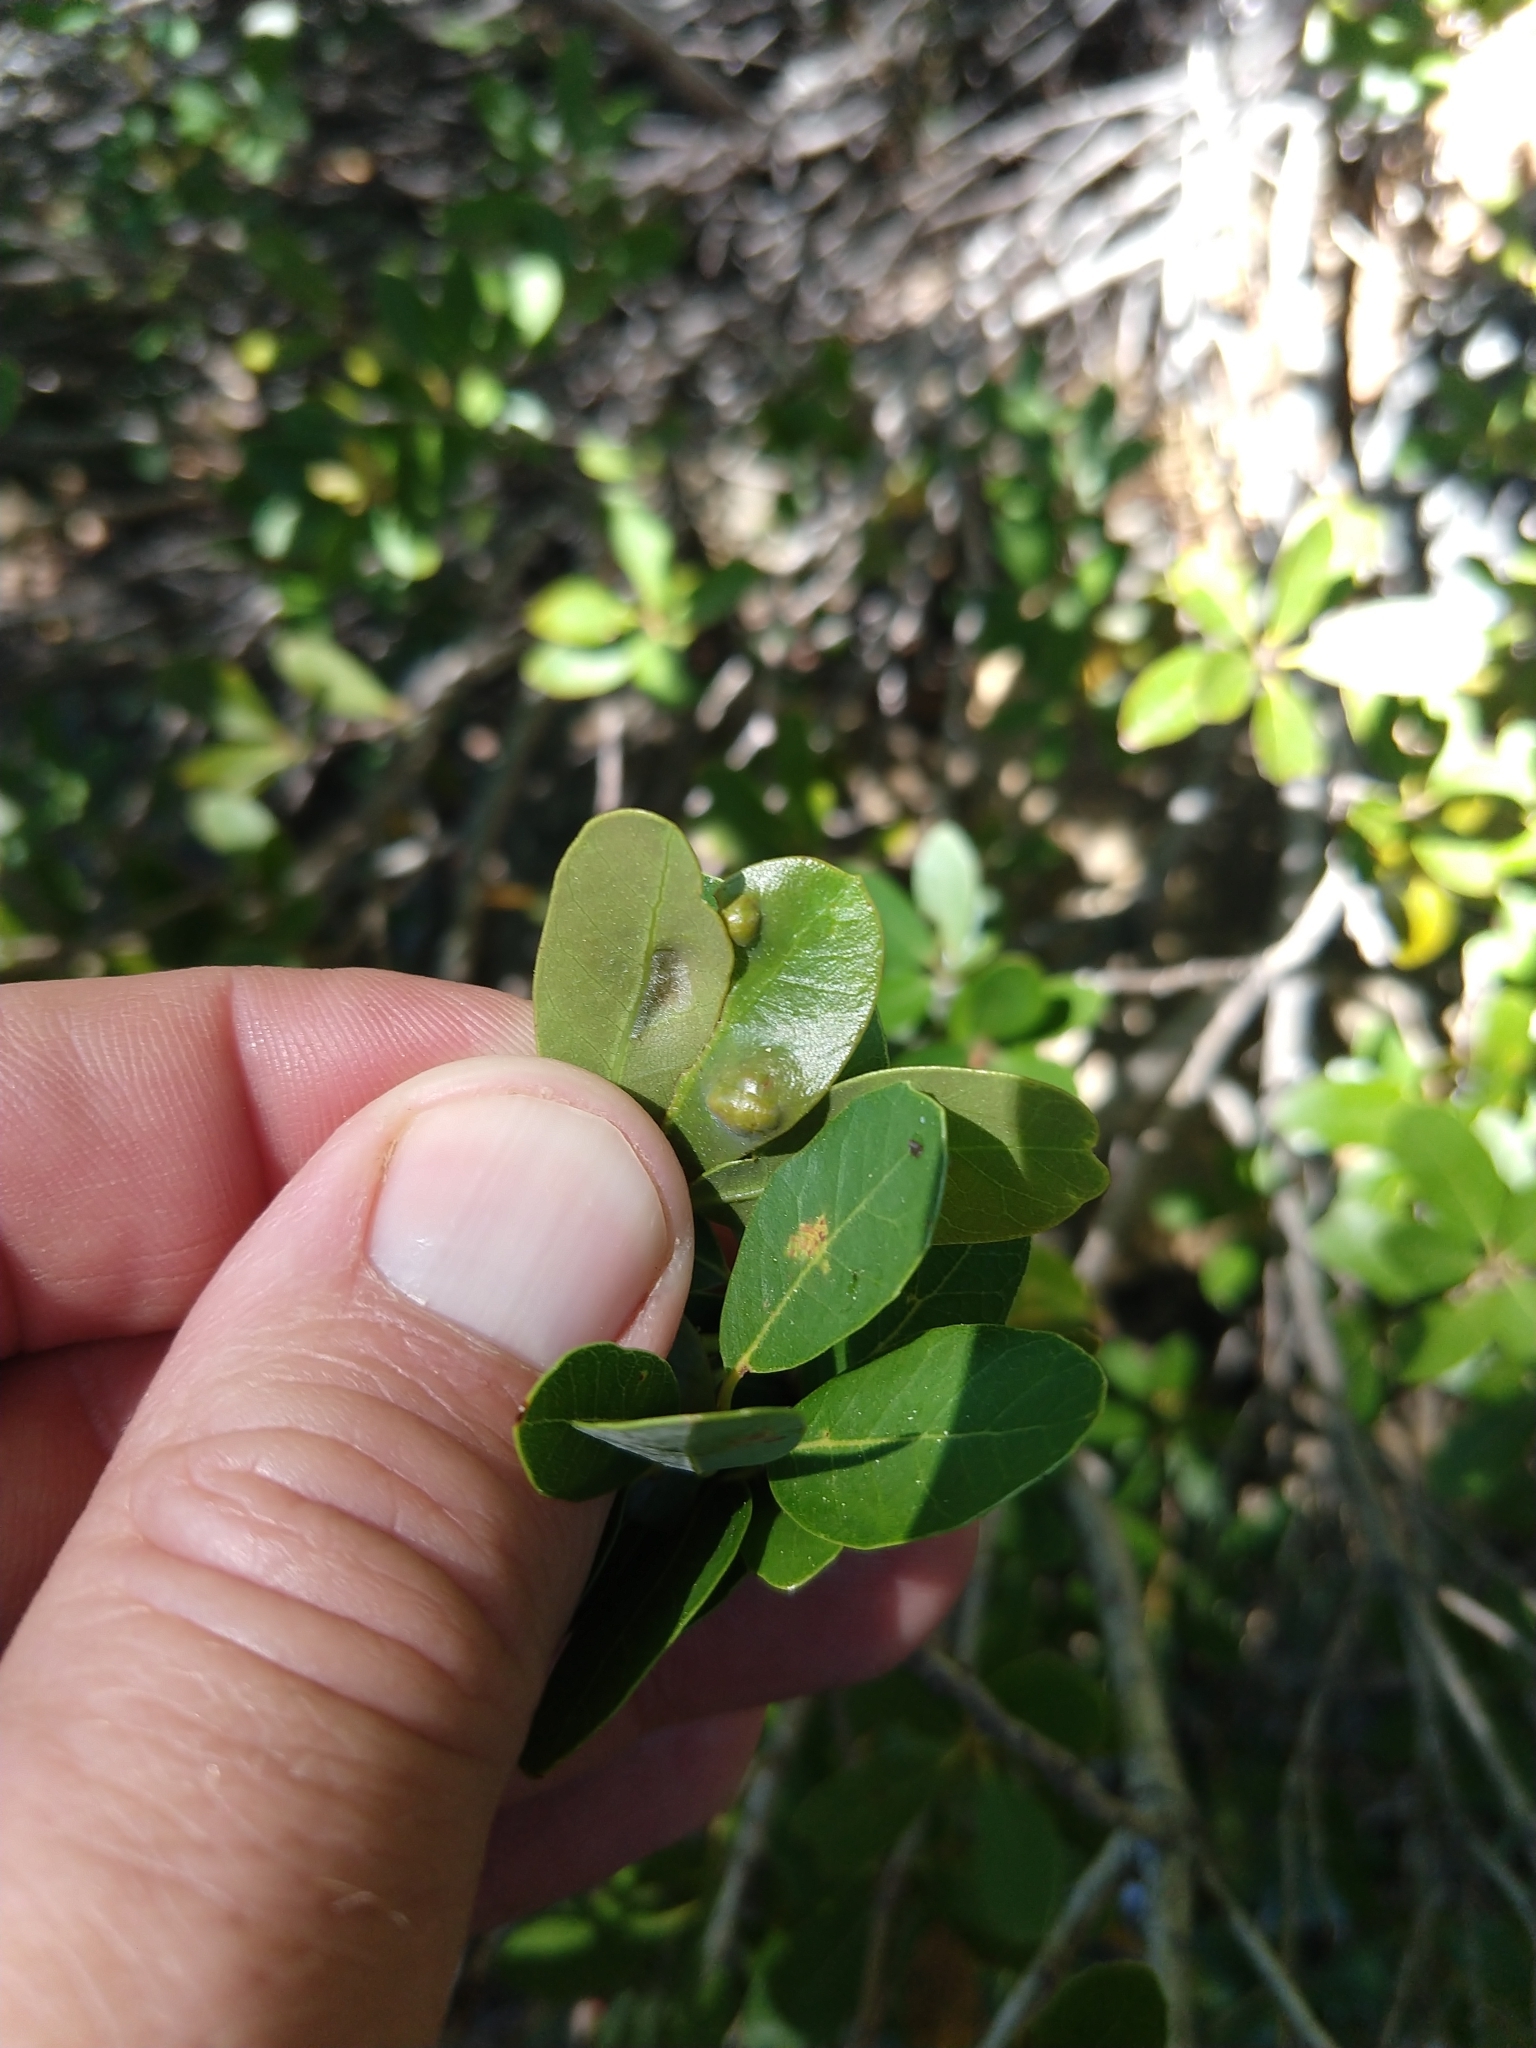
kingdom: Animalia
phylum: Arthropoda
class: Arachnida
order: Trombidiformes
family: Eriophyidae
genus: Aceria
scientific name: Aceria
